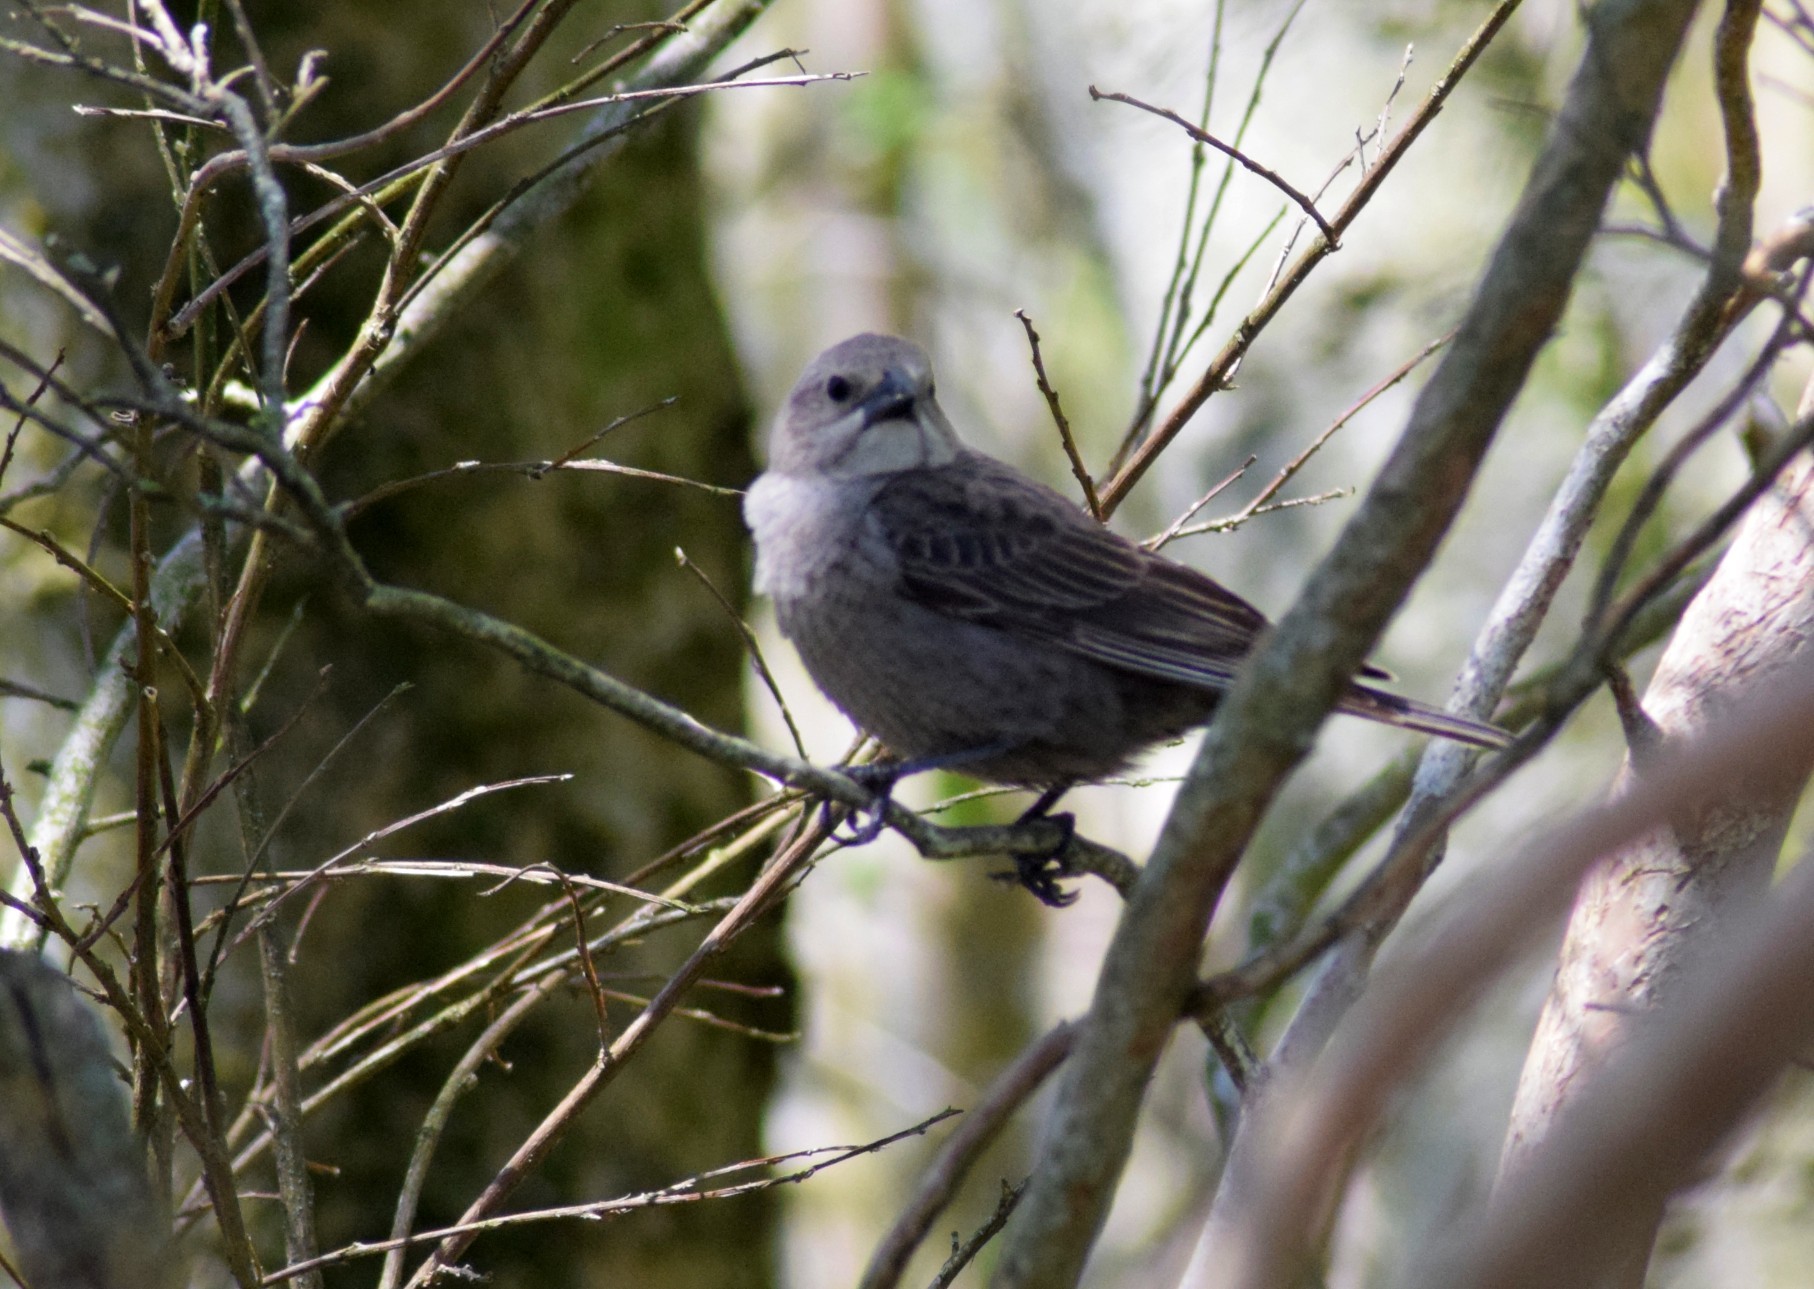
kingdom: Animalia
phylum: Chordata
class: Aves
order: Passeriformes
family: Icteridae
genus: Molothrus
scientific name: Molothrus ater
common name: Brown-headed cowbird
